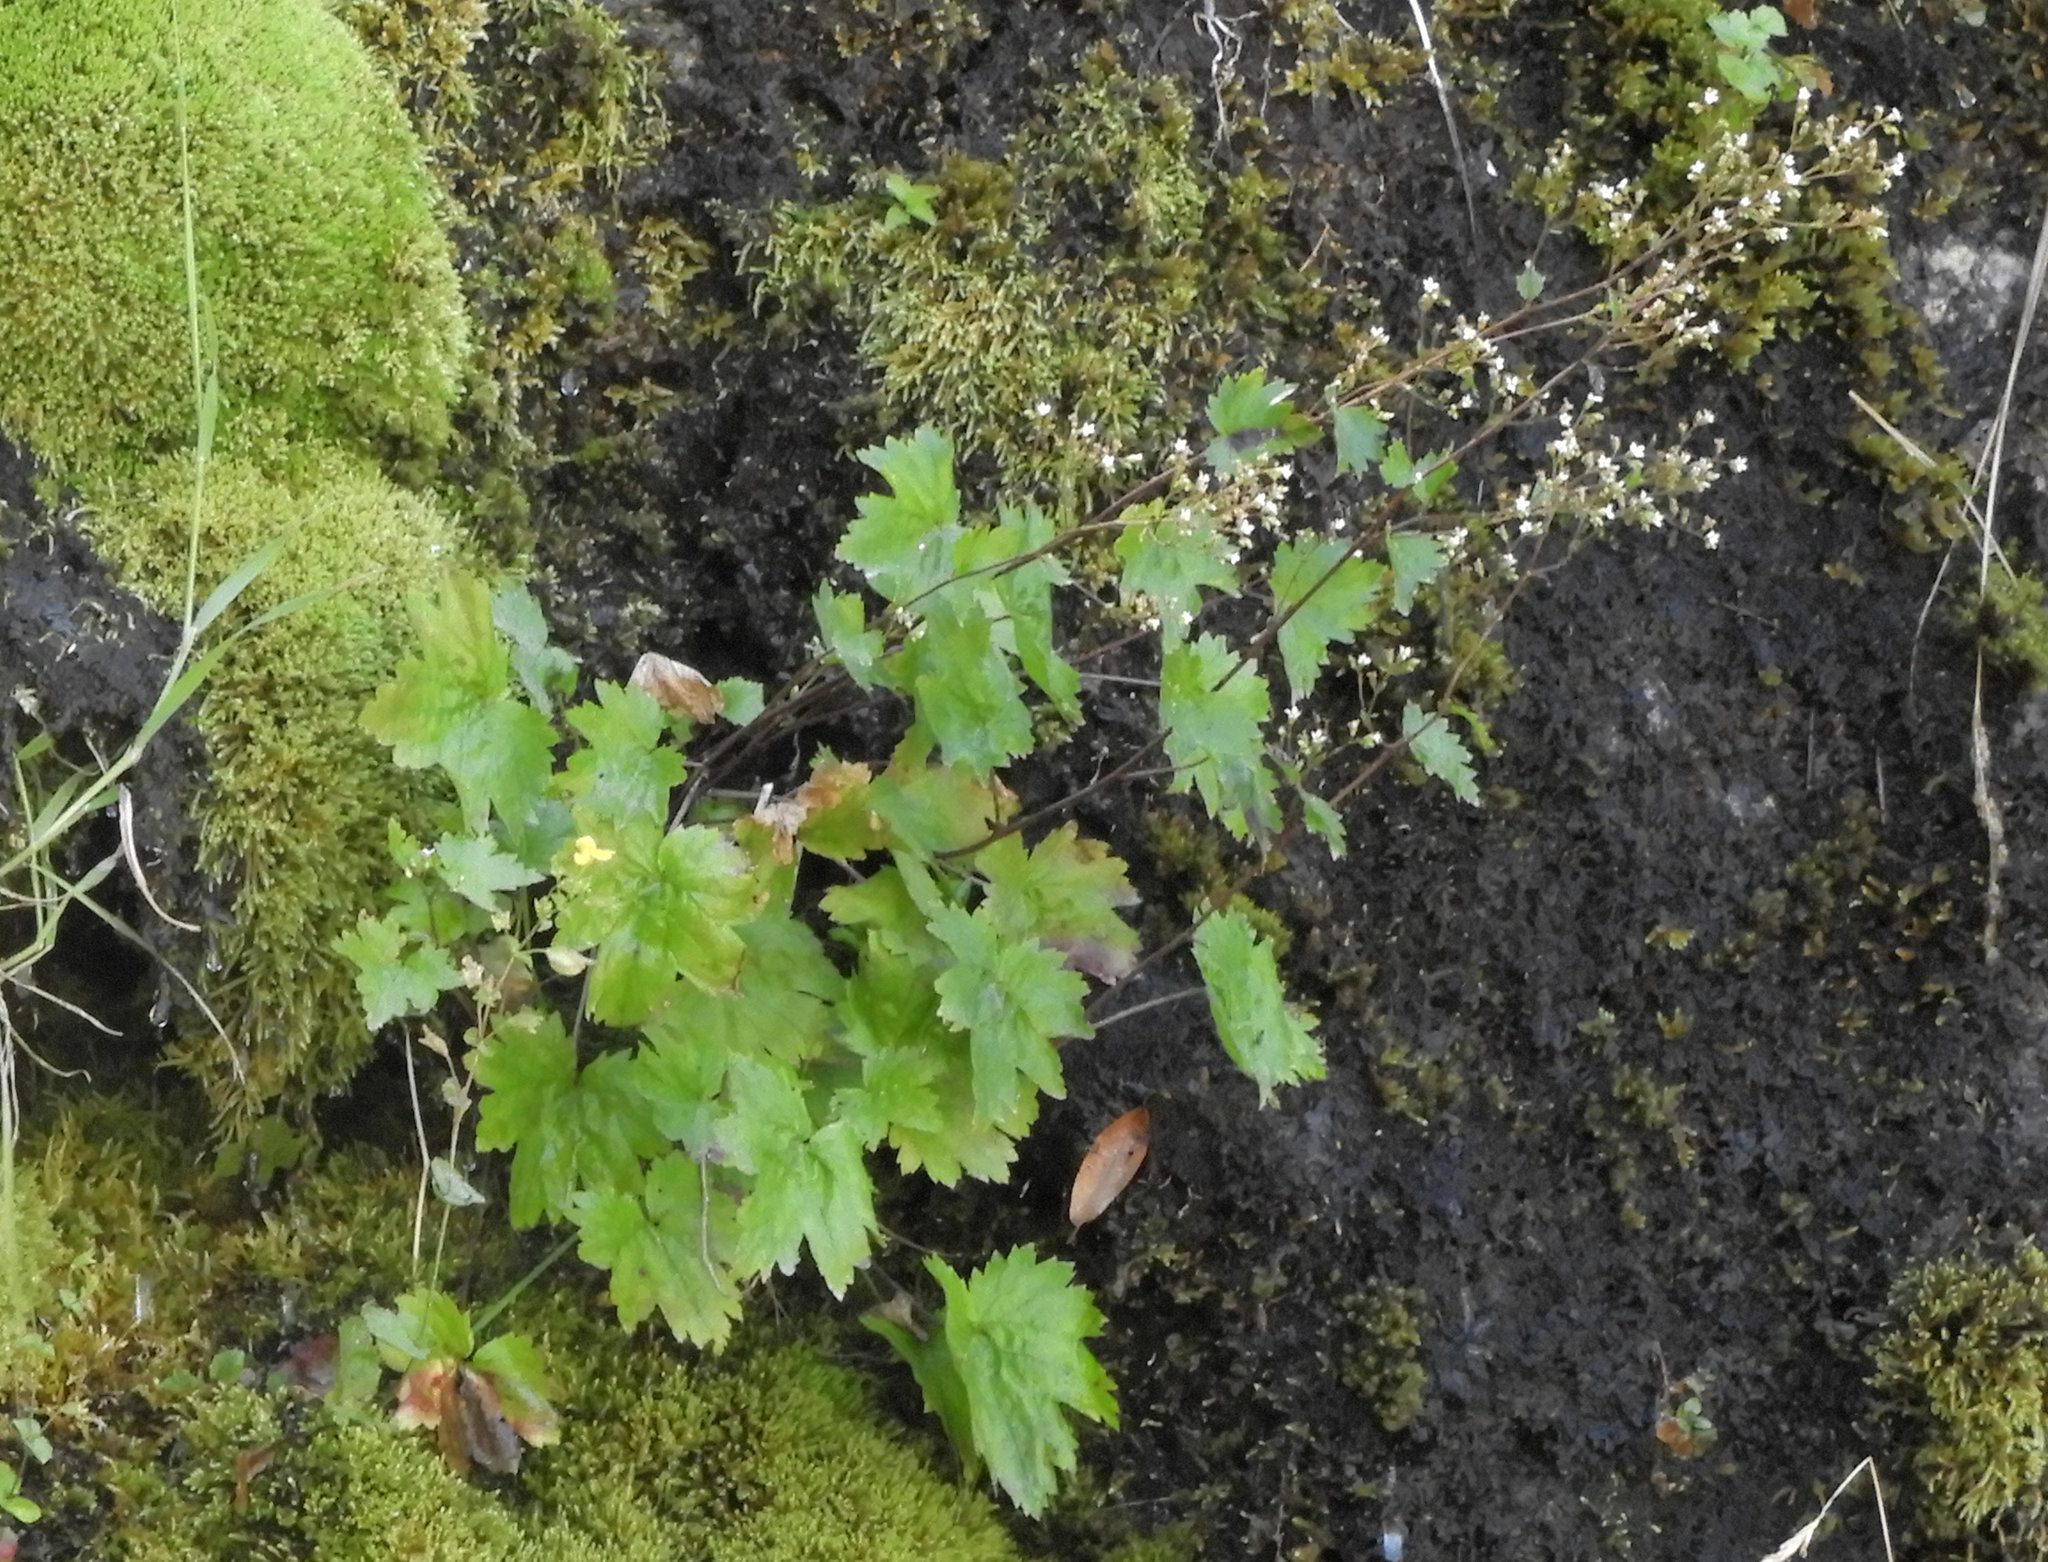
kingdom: Plantae
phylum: Tracheophyta
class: Magnoliopsida
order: Saxifragales
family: Saxifragaceae
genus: Boykinia
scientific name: Boykinia occidentalis
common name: Coast boykinia
